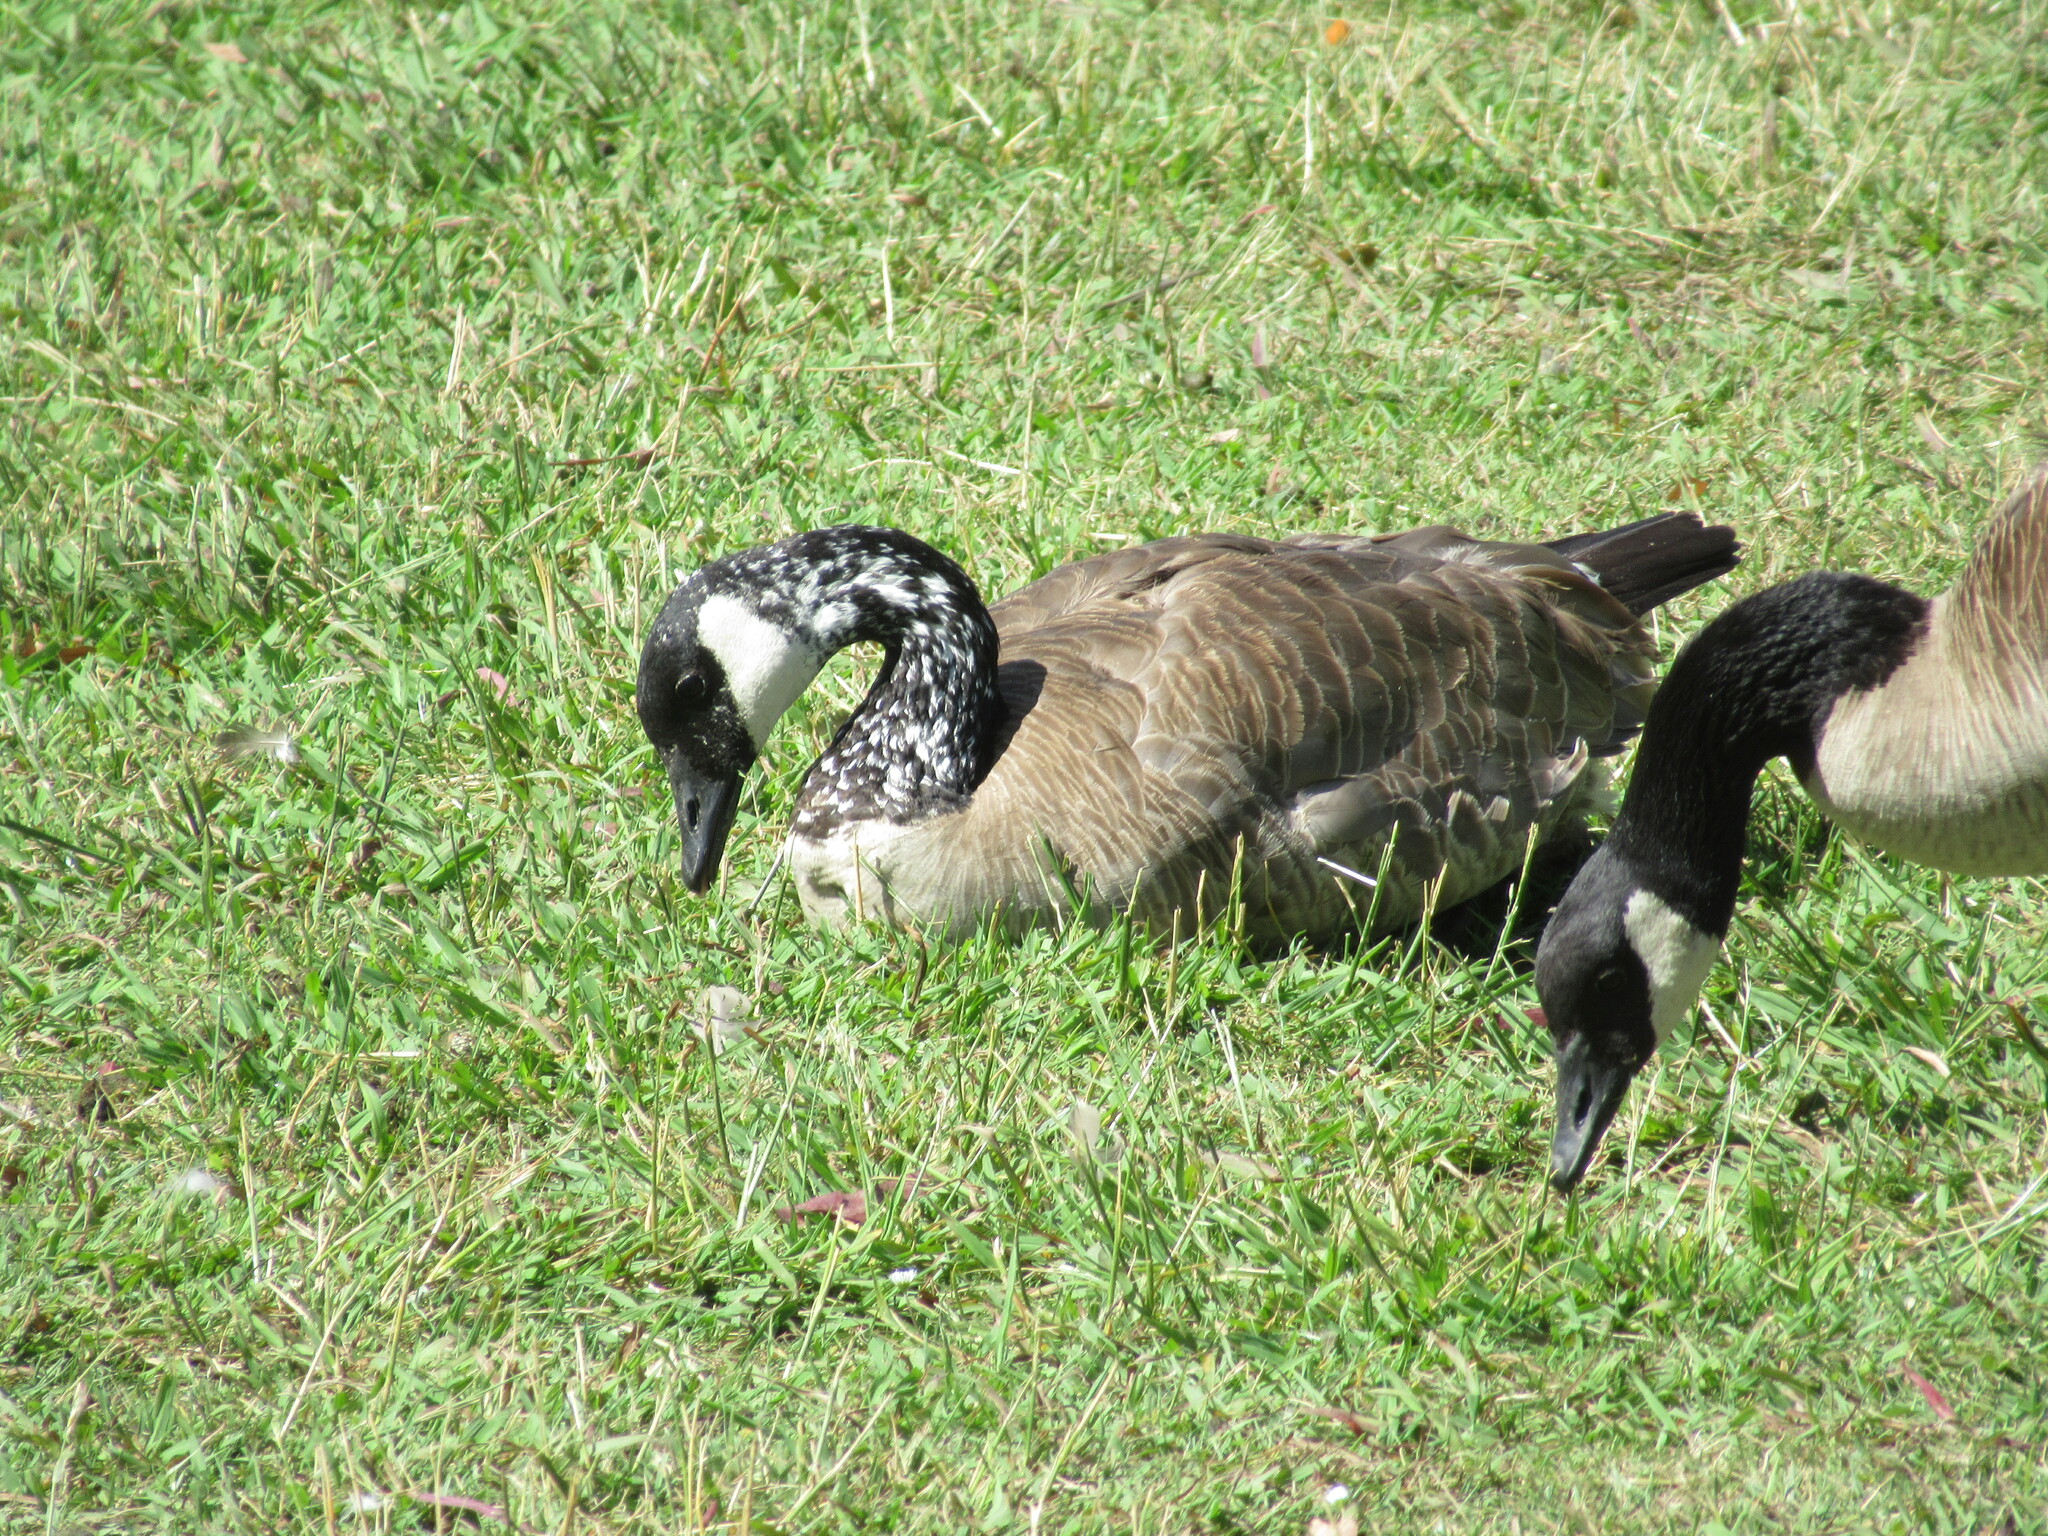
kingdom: Animalia
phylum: Chordata
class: Aves
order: Anseriformes
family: Anatidae
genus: Branta
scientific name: Branta canadensis
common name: Canada goose
